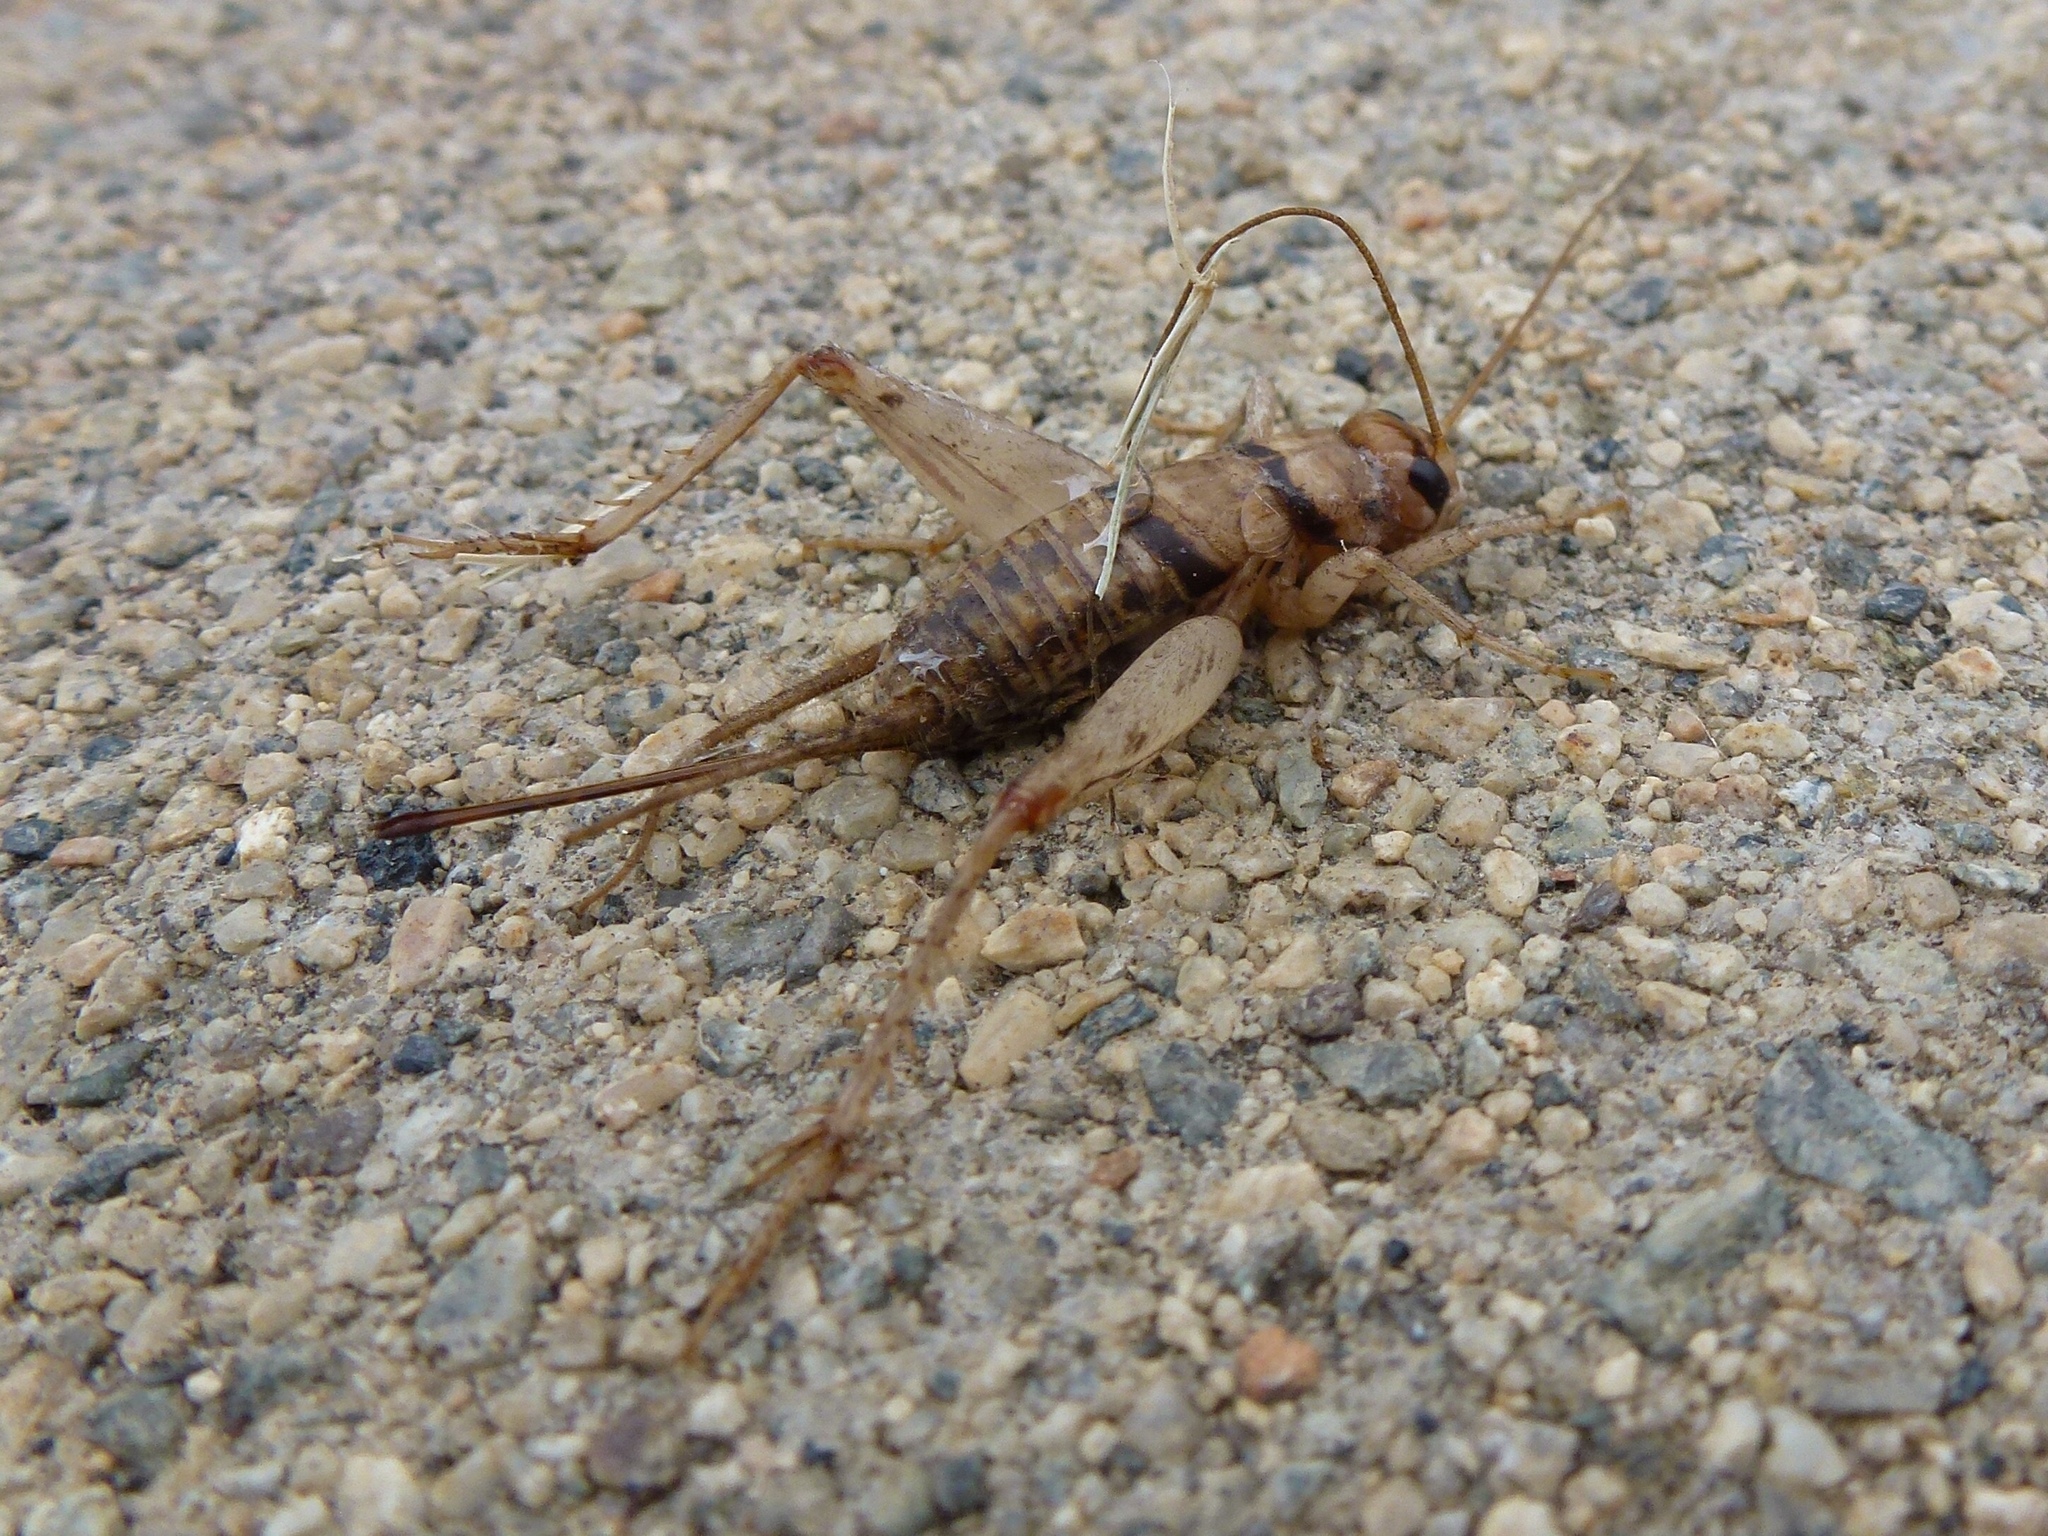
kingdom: Animalia
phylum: Arthropoda
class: Insecta
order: Orthoptera
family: Gryllidae
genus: Gryllodes
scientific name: Gryllodes sigillatus
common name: Tropical house cricket
